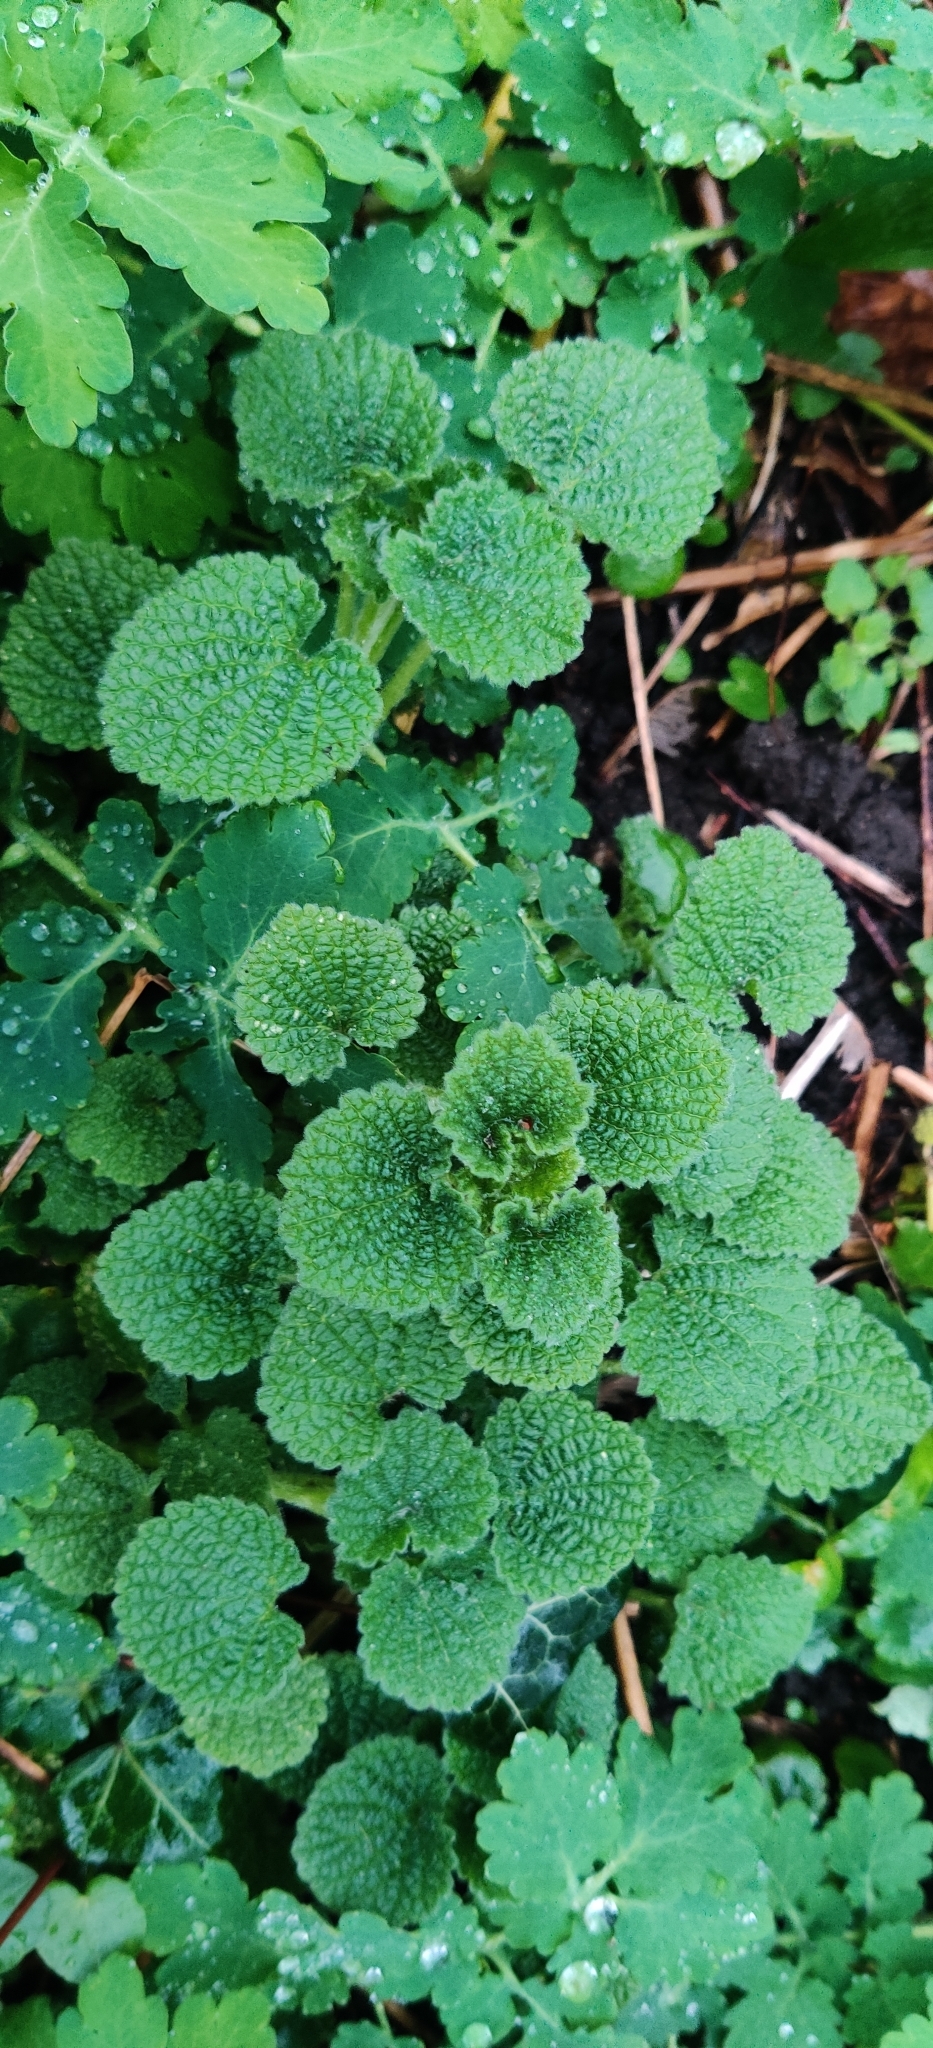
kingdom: Plantae
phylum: Tracheophyta
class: Magnoliopsida
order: Lamiales
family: Lamiaceae
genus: Ballota
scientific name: Ballota nigra
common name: Black horehound
